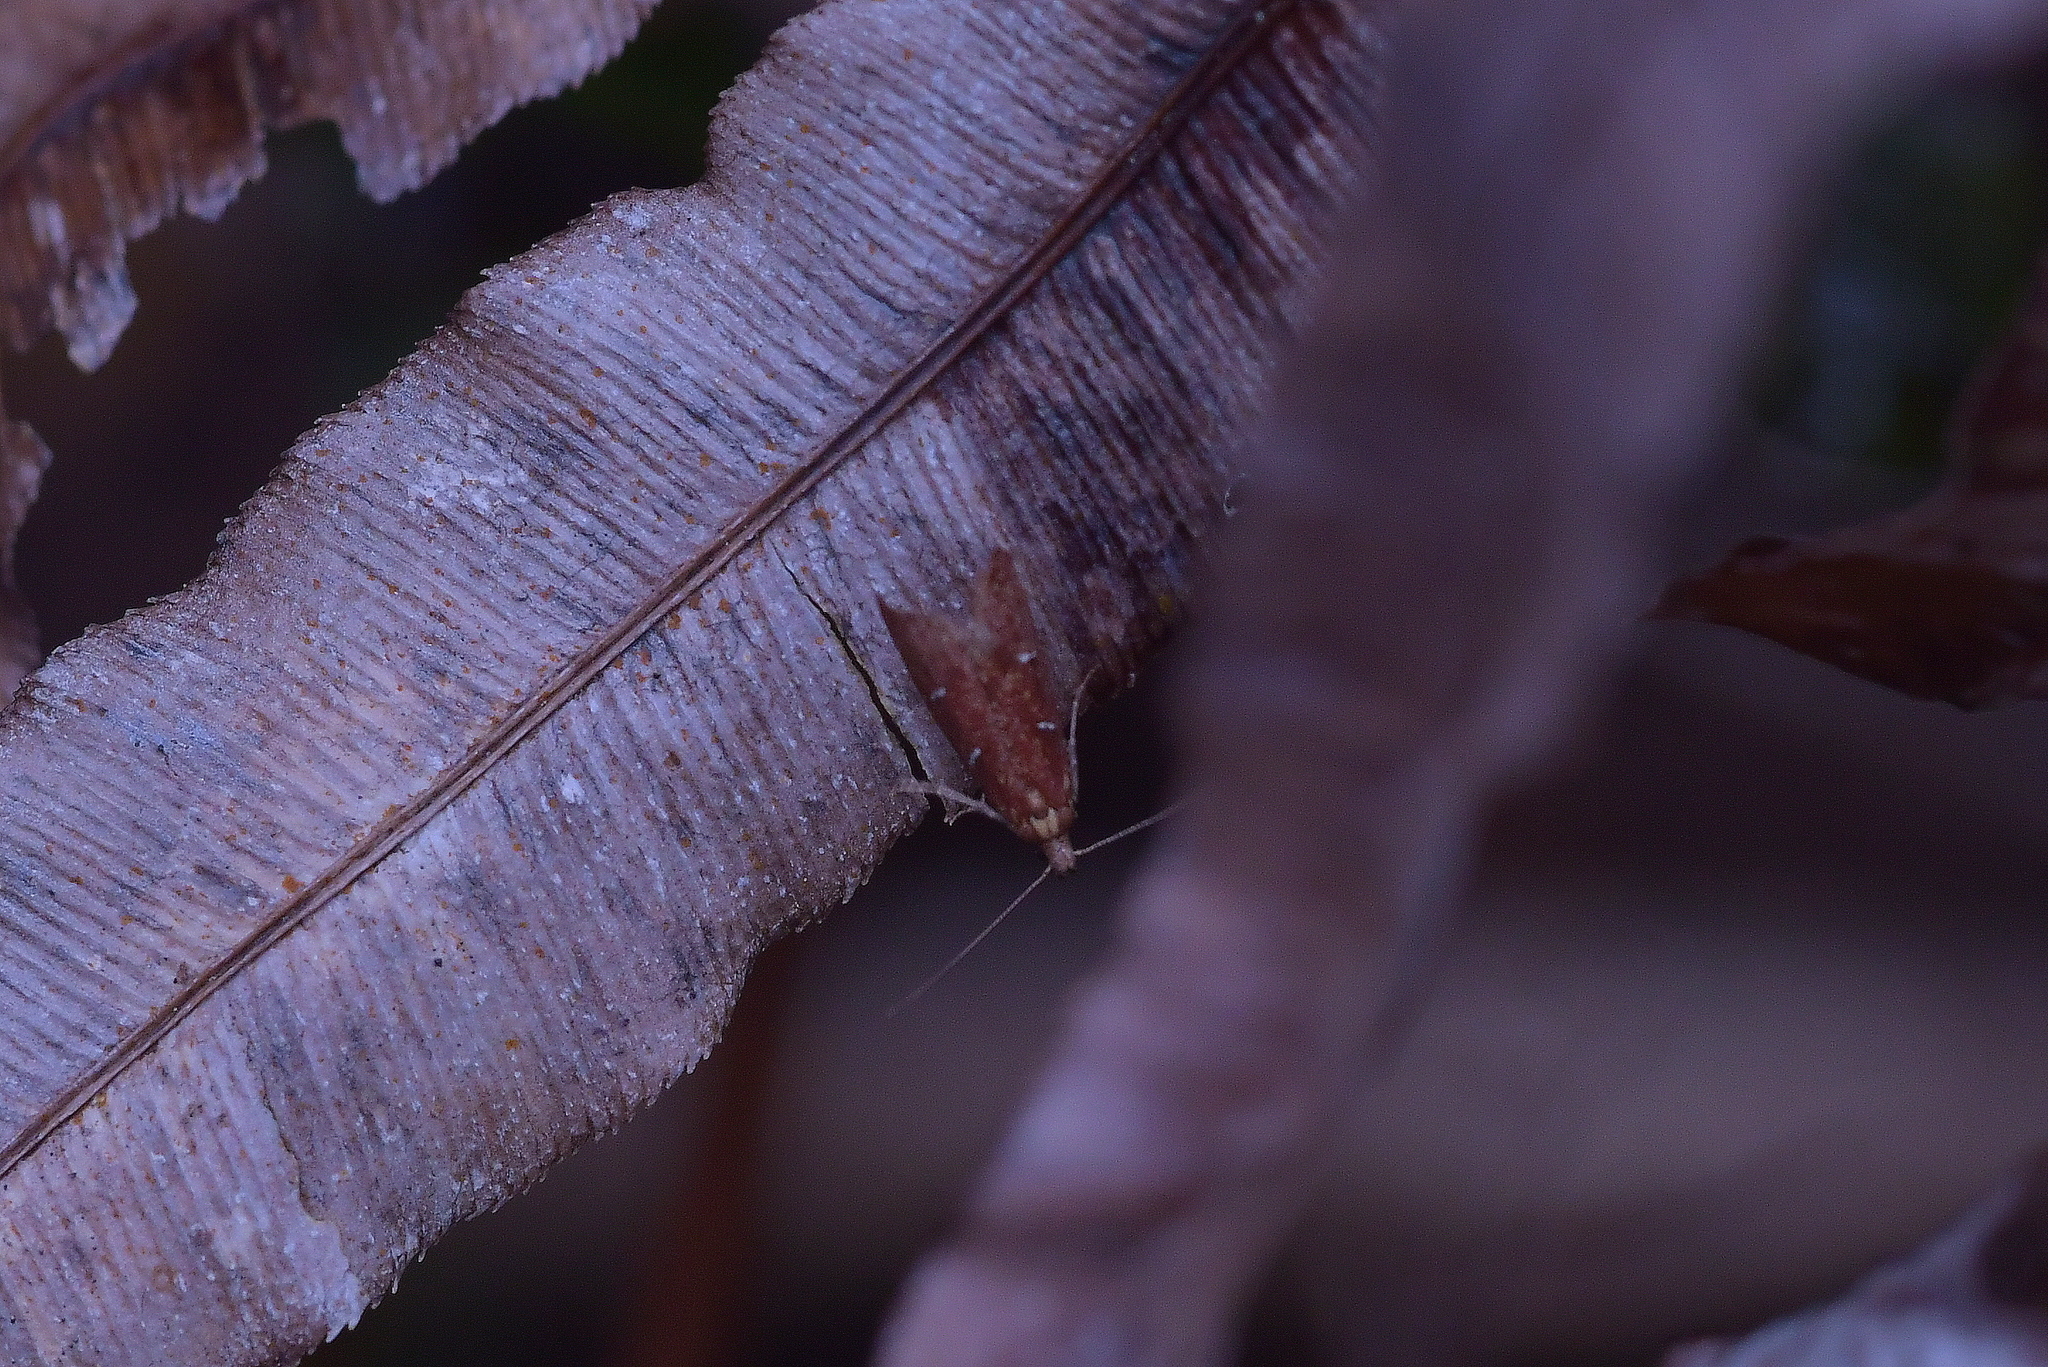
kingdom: Animalia
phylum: Arthropoda
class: Insecta
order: Lepidoptera
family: Plutellidae
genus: Cadmogenes
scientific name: Cadmogenes literata
